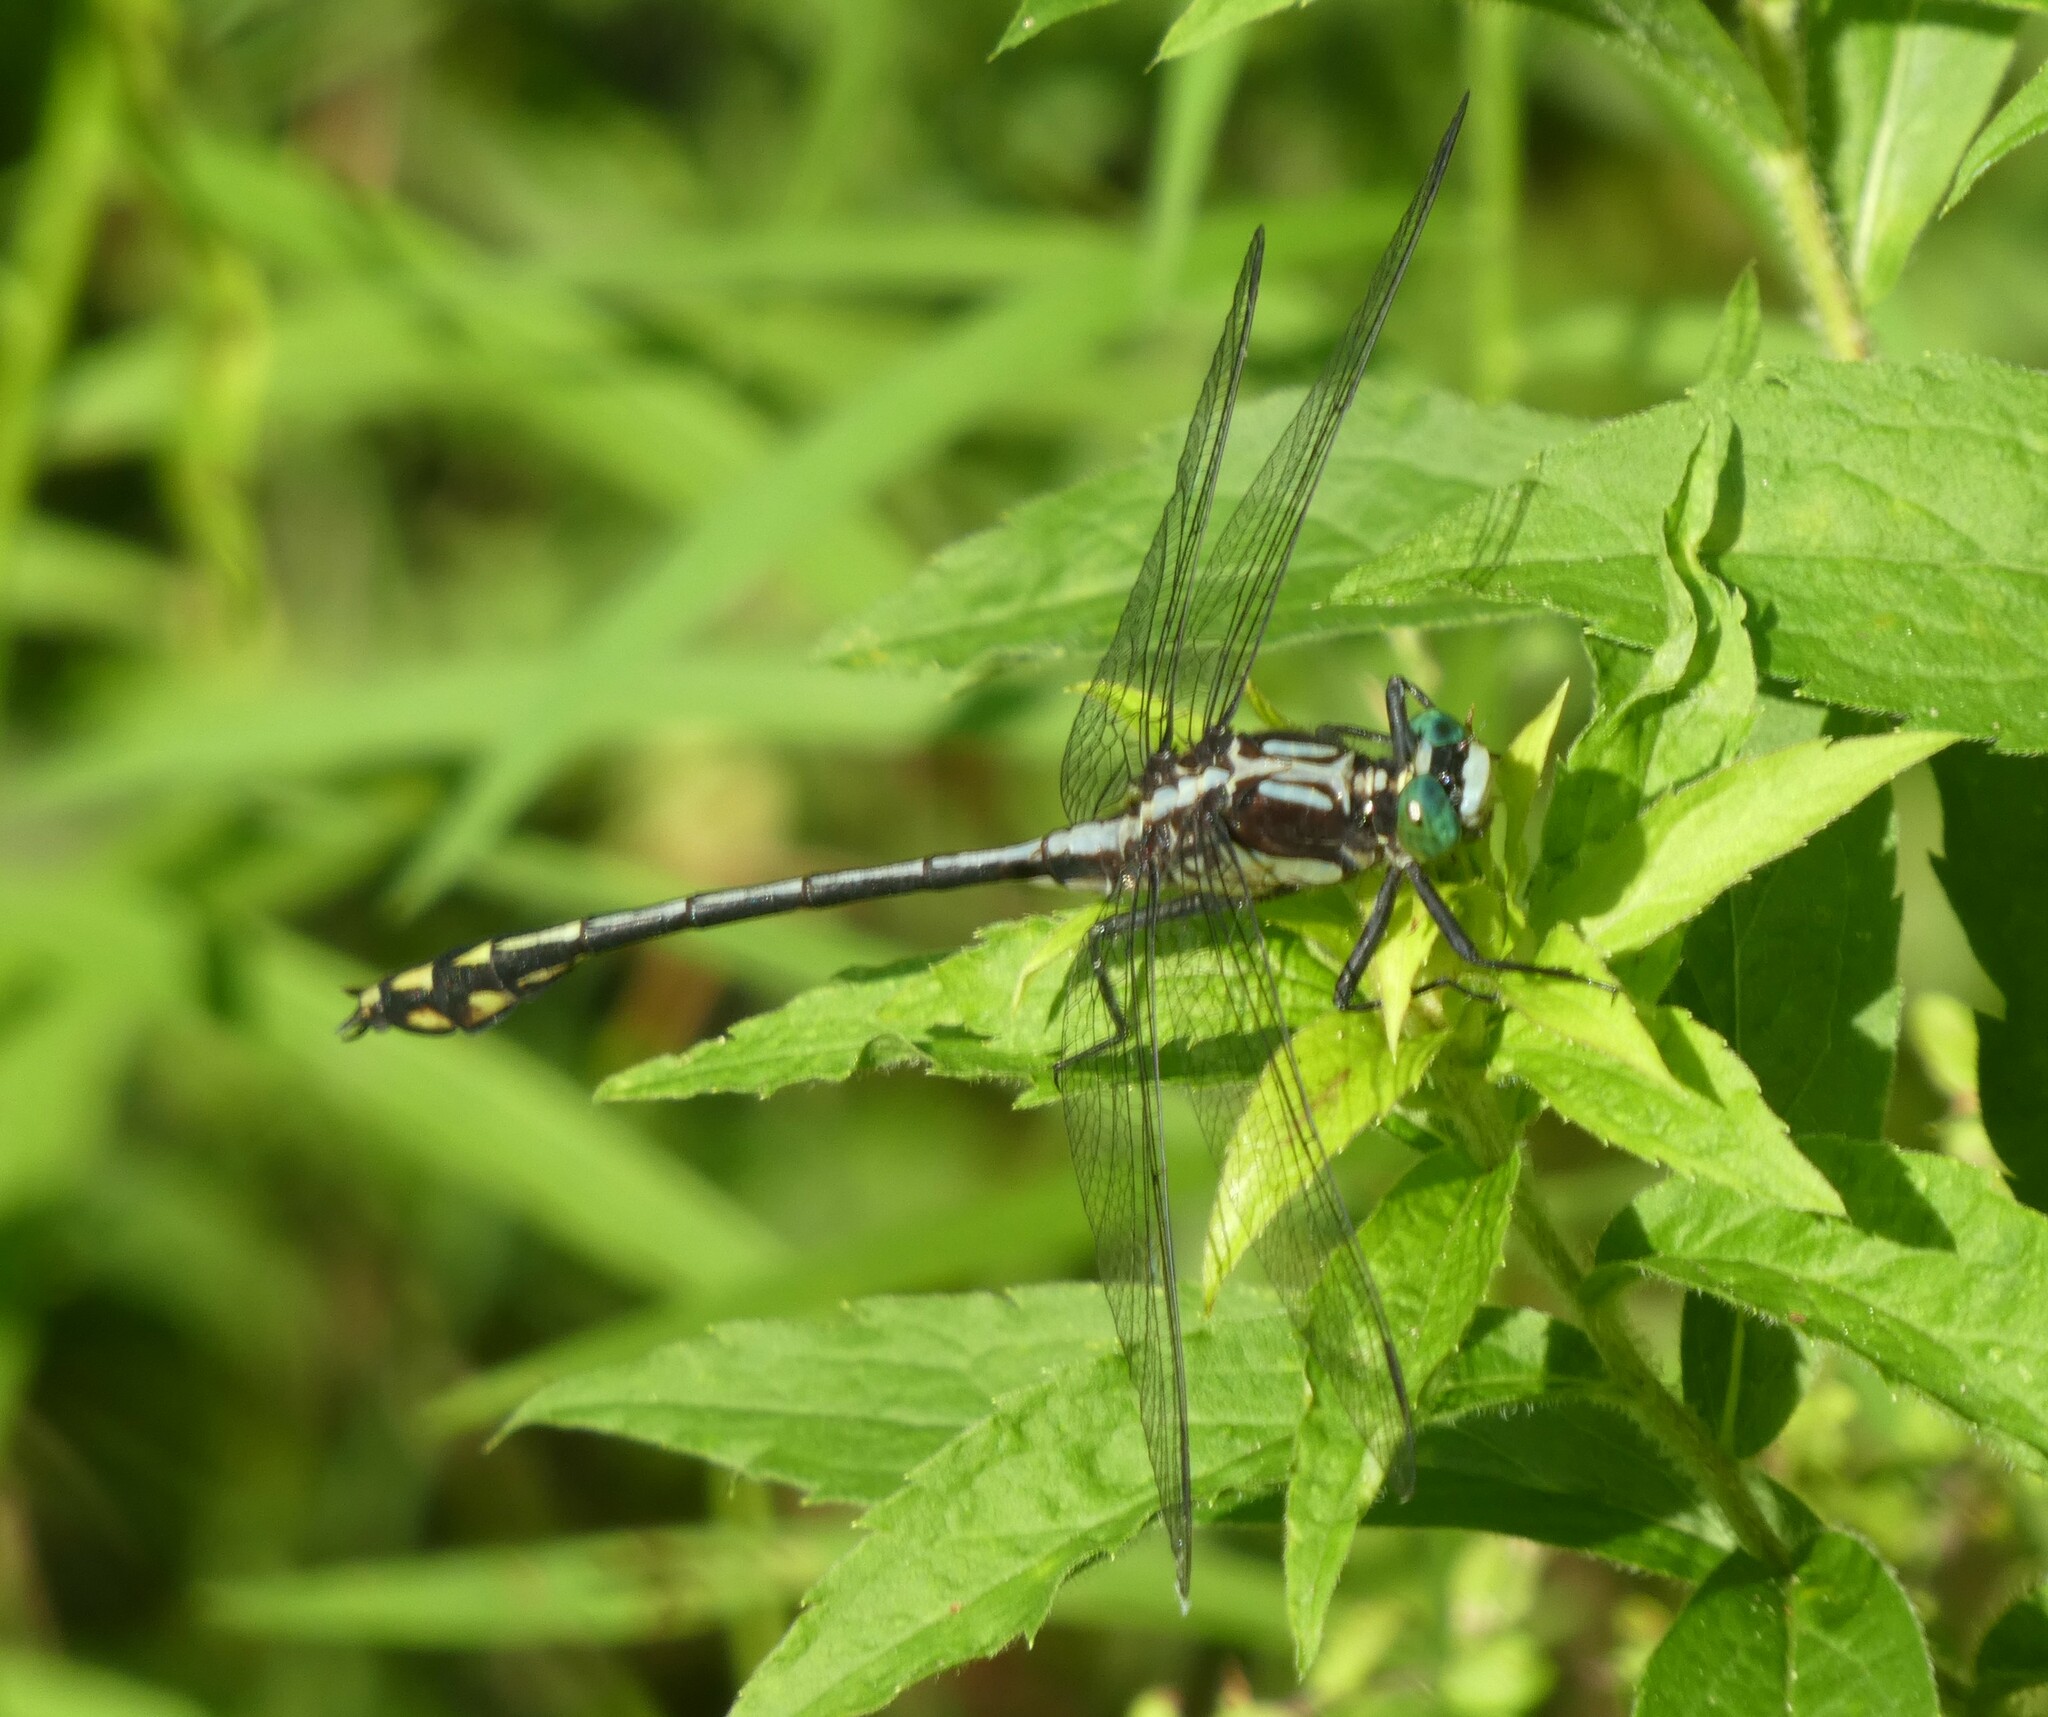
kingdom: Animalia
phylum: Arthropoda
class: Insecta
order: Odonata
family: Gomphidae
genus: Dromogomphus
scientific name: Dromogomphus spinosus
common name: Black-shouldered spinyleg
